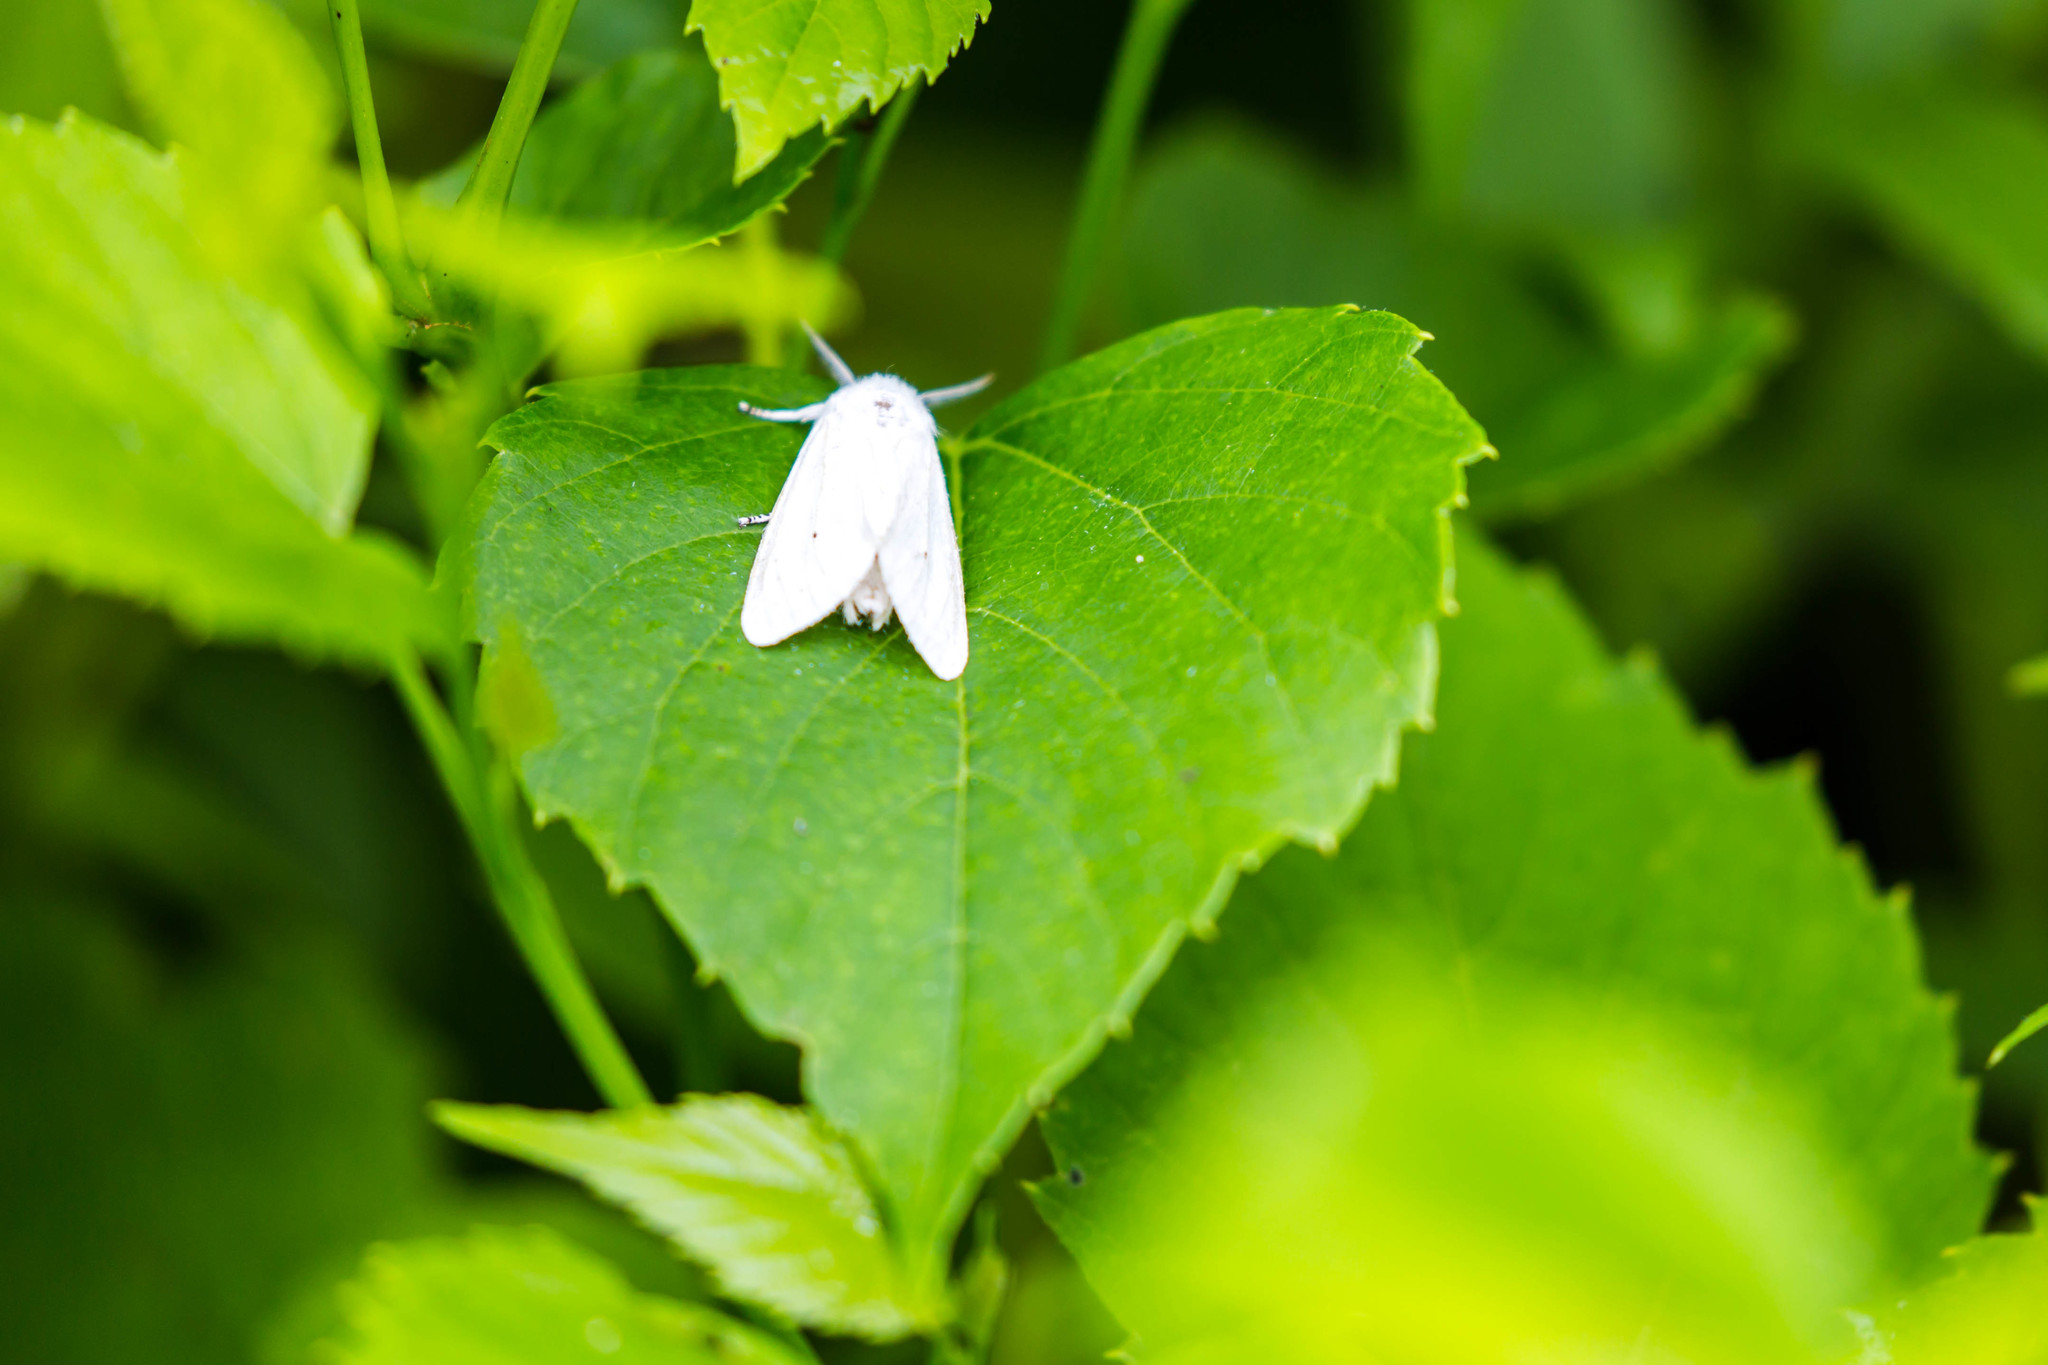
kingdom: Animalia
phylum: Arthropoda
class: Insecta
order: Lepidoptera
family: Erebidae
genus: Spilosoma
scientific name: Spilosoma virginica
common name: Virginia tiger moth
